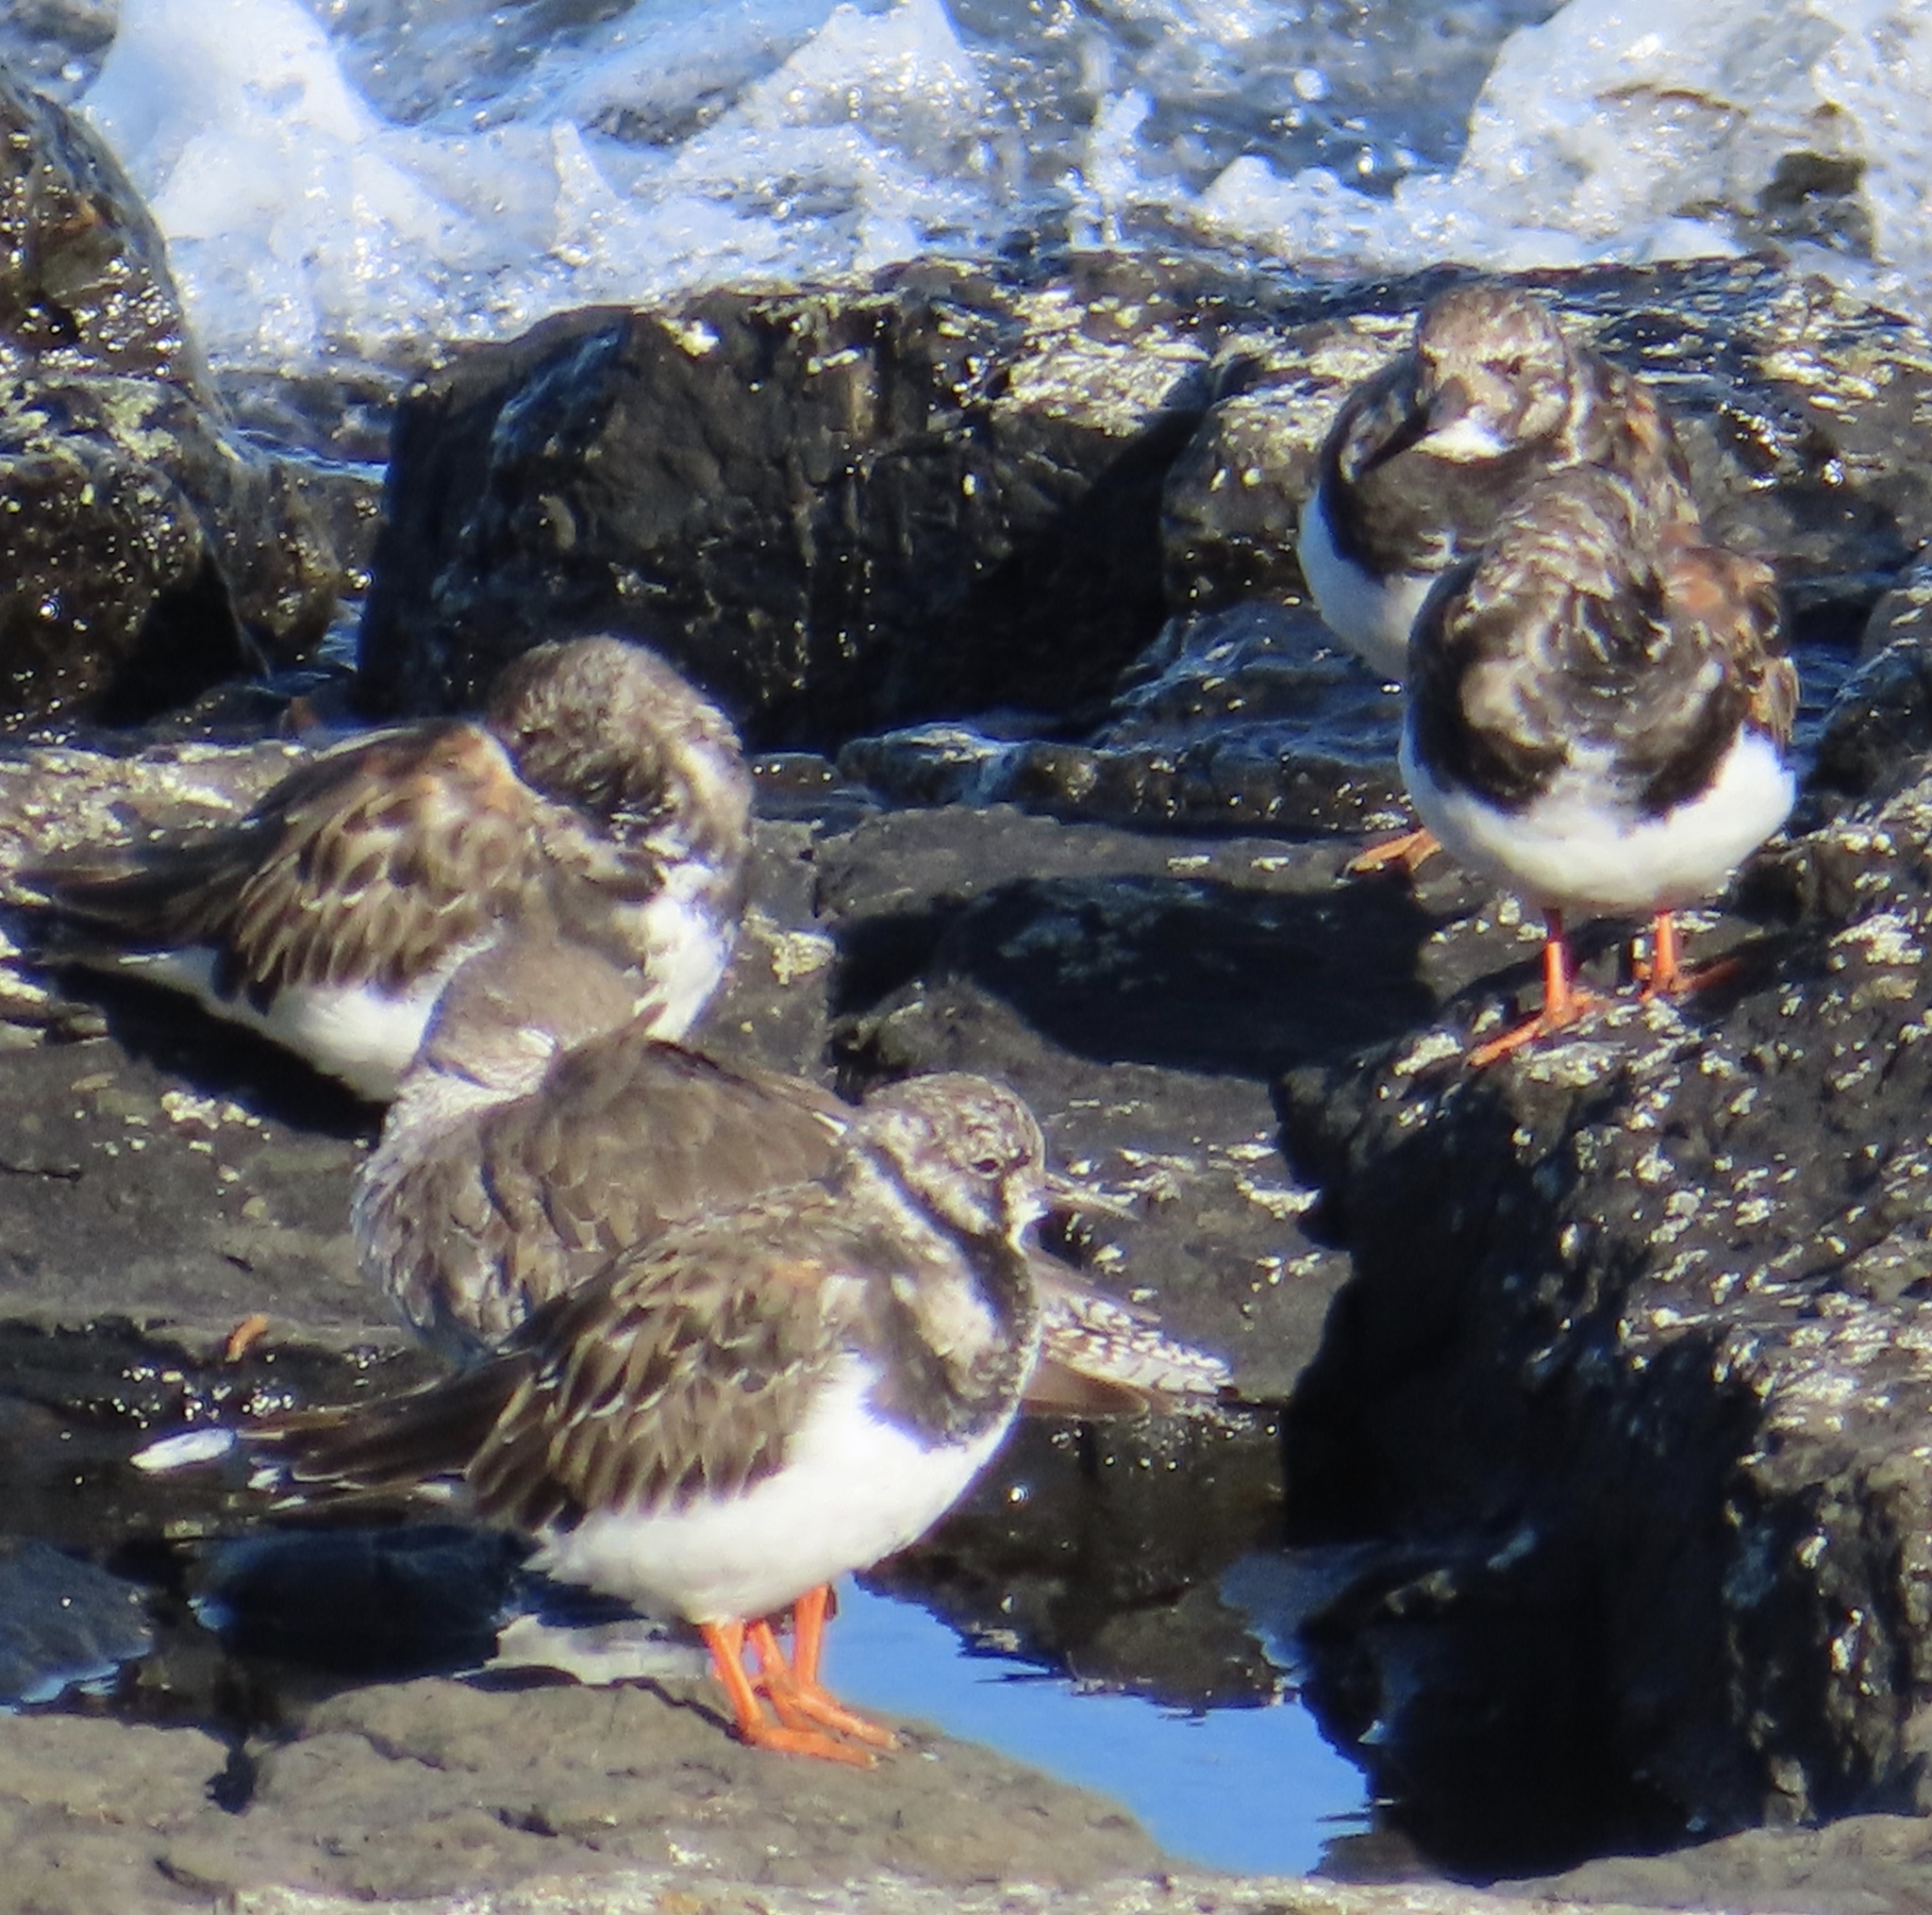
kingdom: Animalia
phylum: Chordata
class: Aves
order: Charadriiformes
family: Scolopacidae
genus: Arenaria
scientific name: Arenaria interpres
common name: Ruddy turnstone
